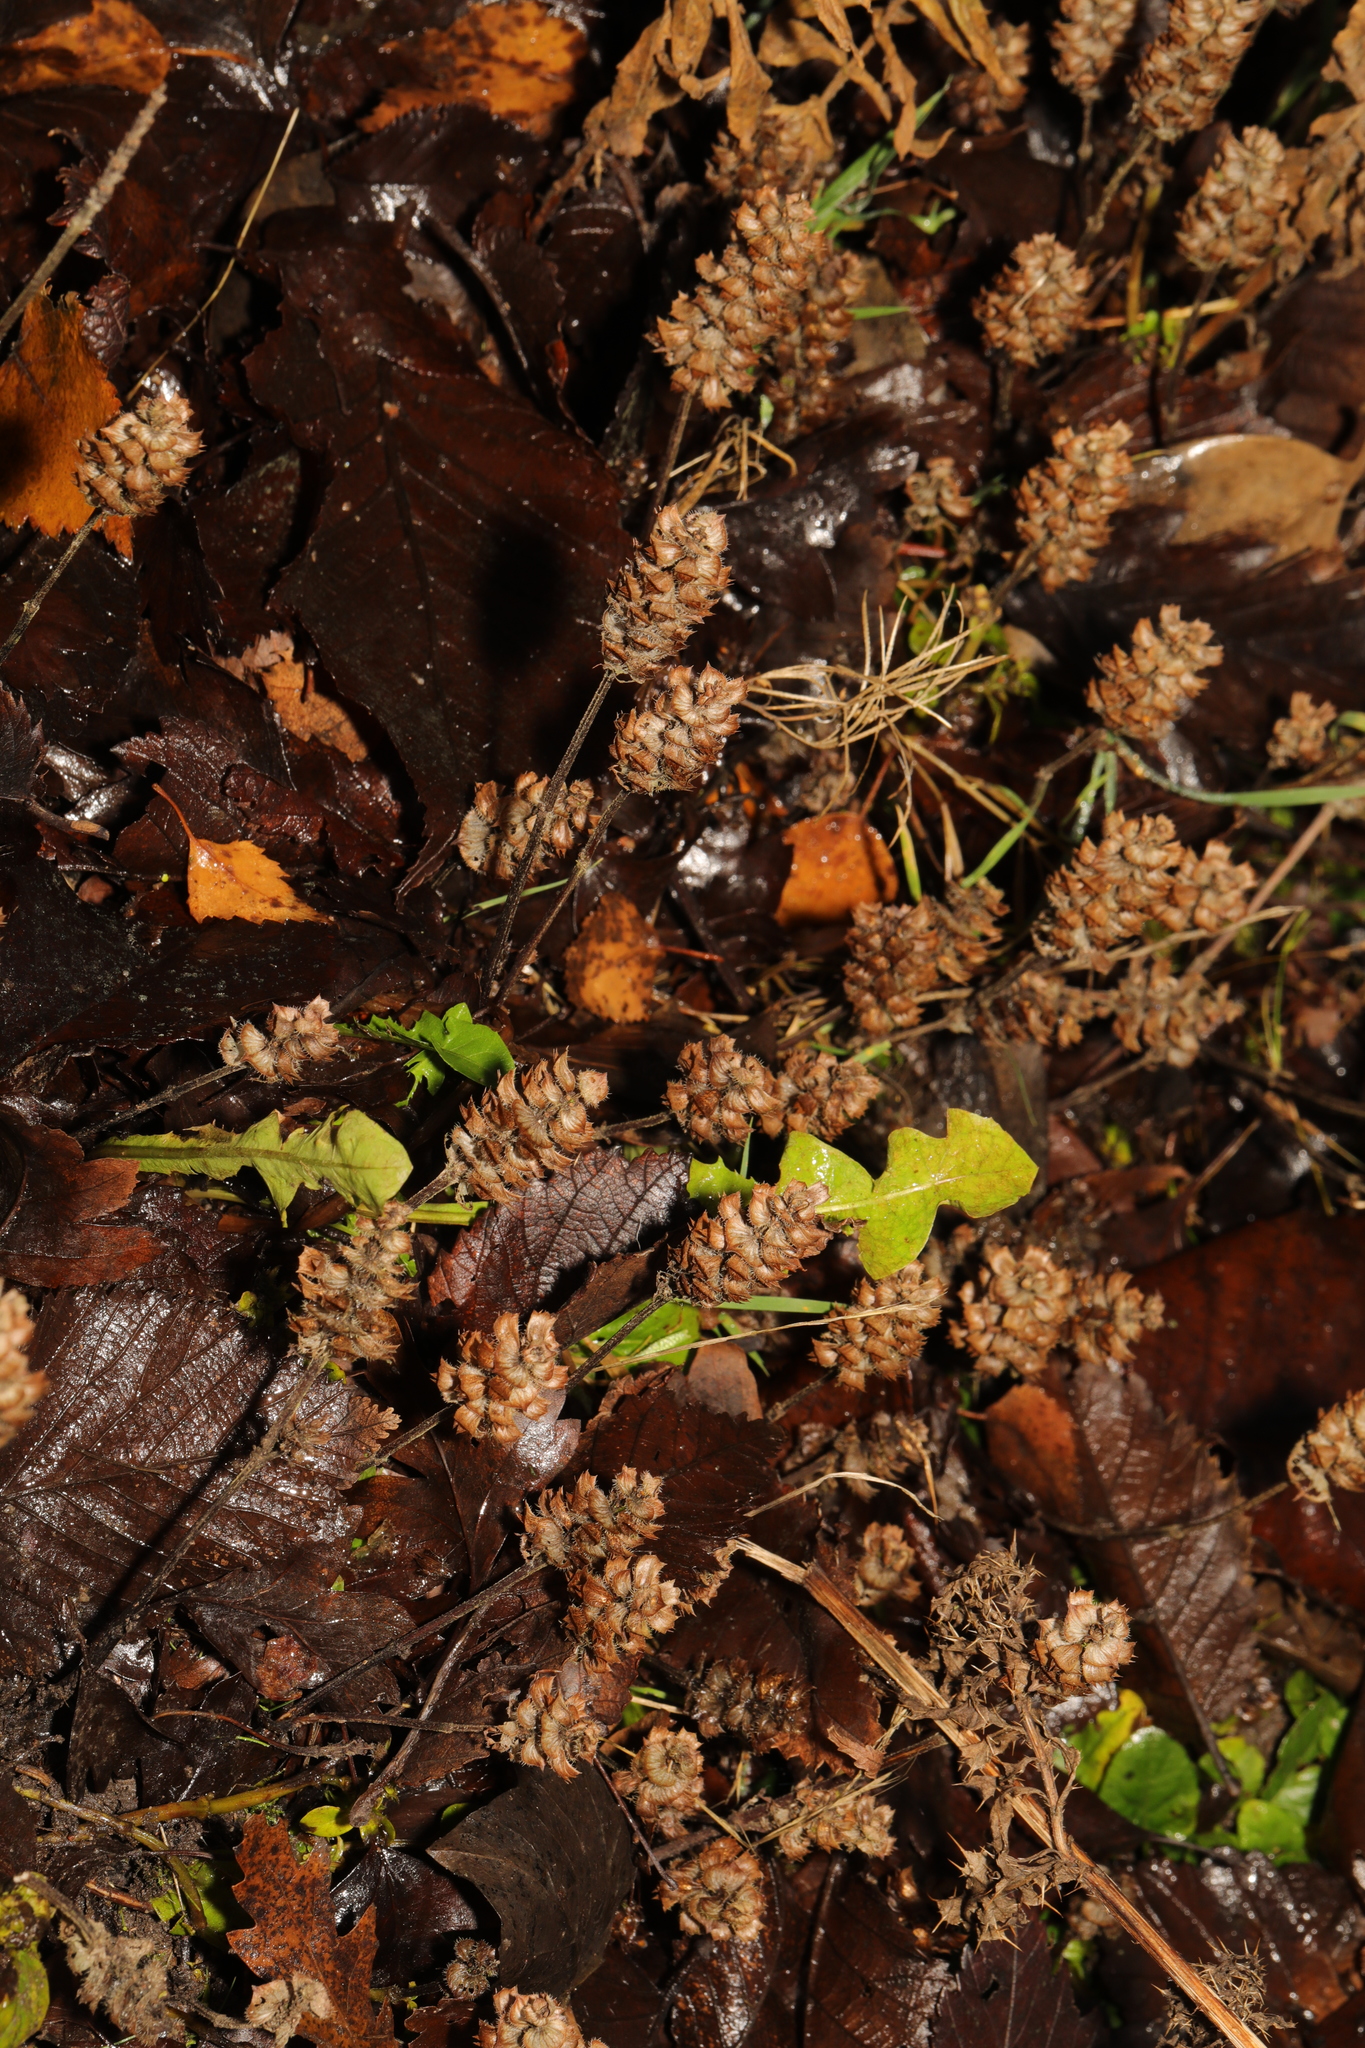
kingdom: Plantae
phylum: Tracheophyta
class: Magnoliopsida
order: Lamiales
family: Lamiaceae
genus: Prunella
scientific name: Prunella vulgaris
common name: Heal-all
